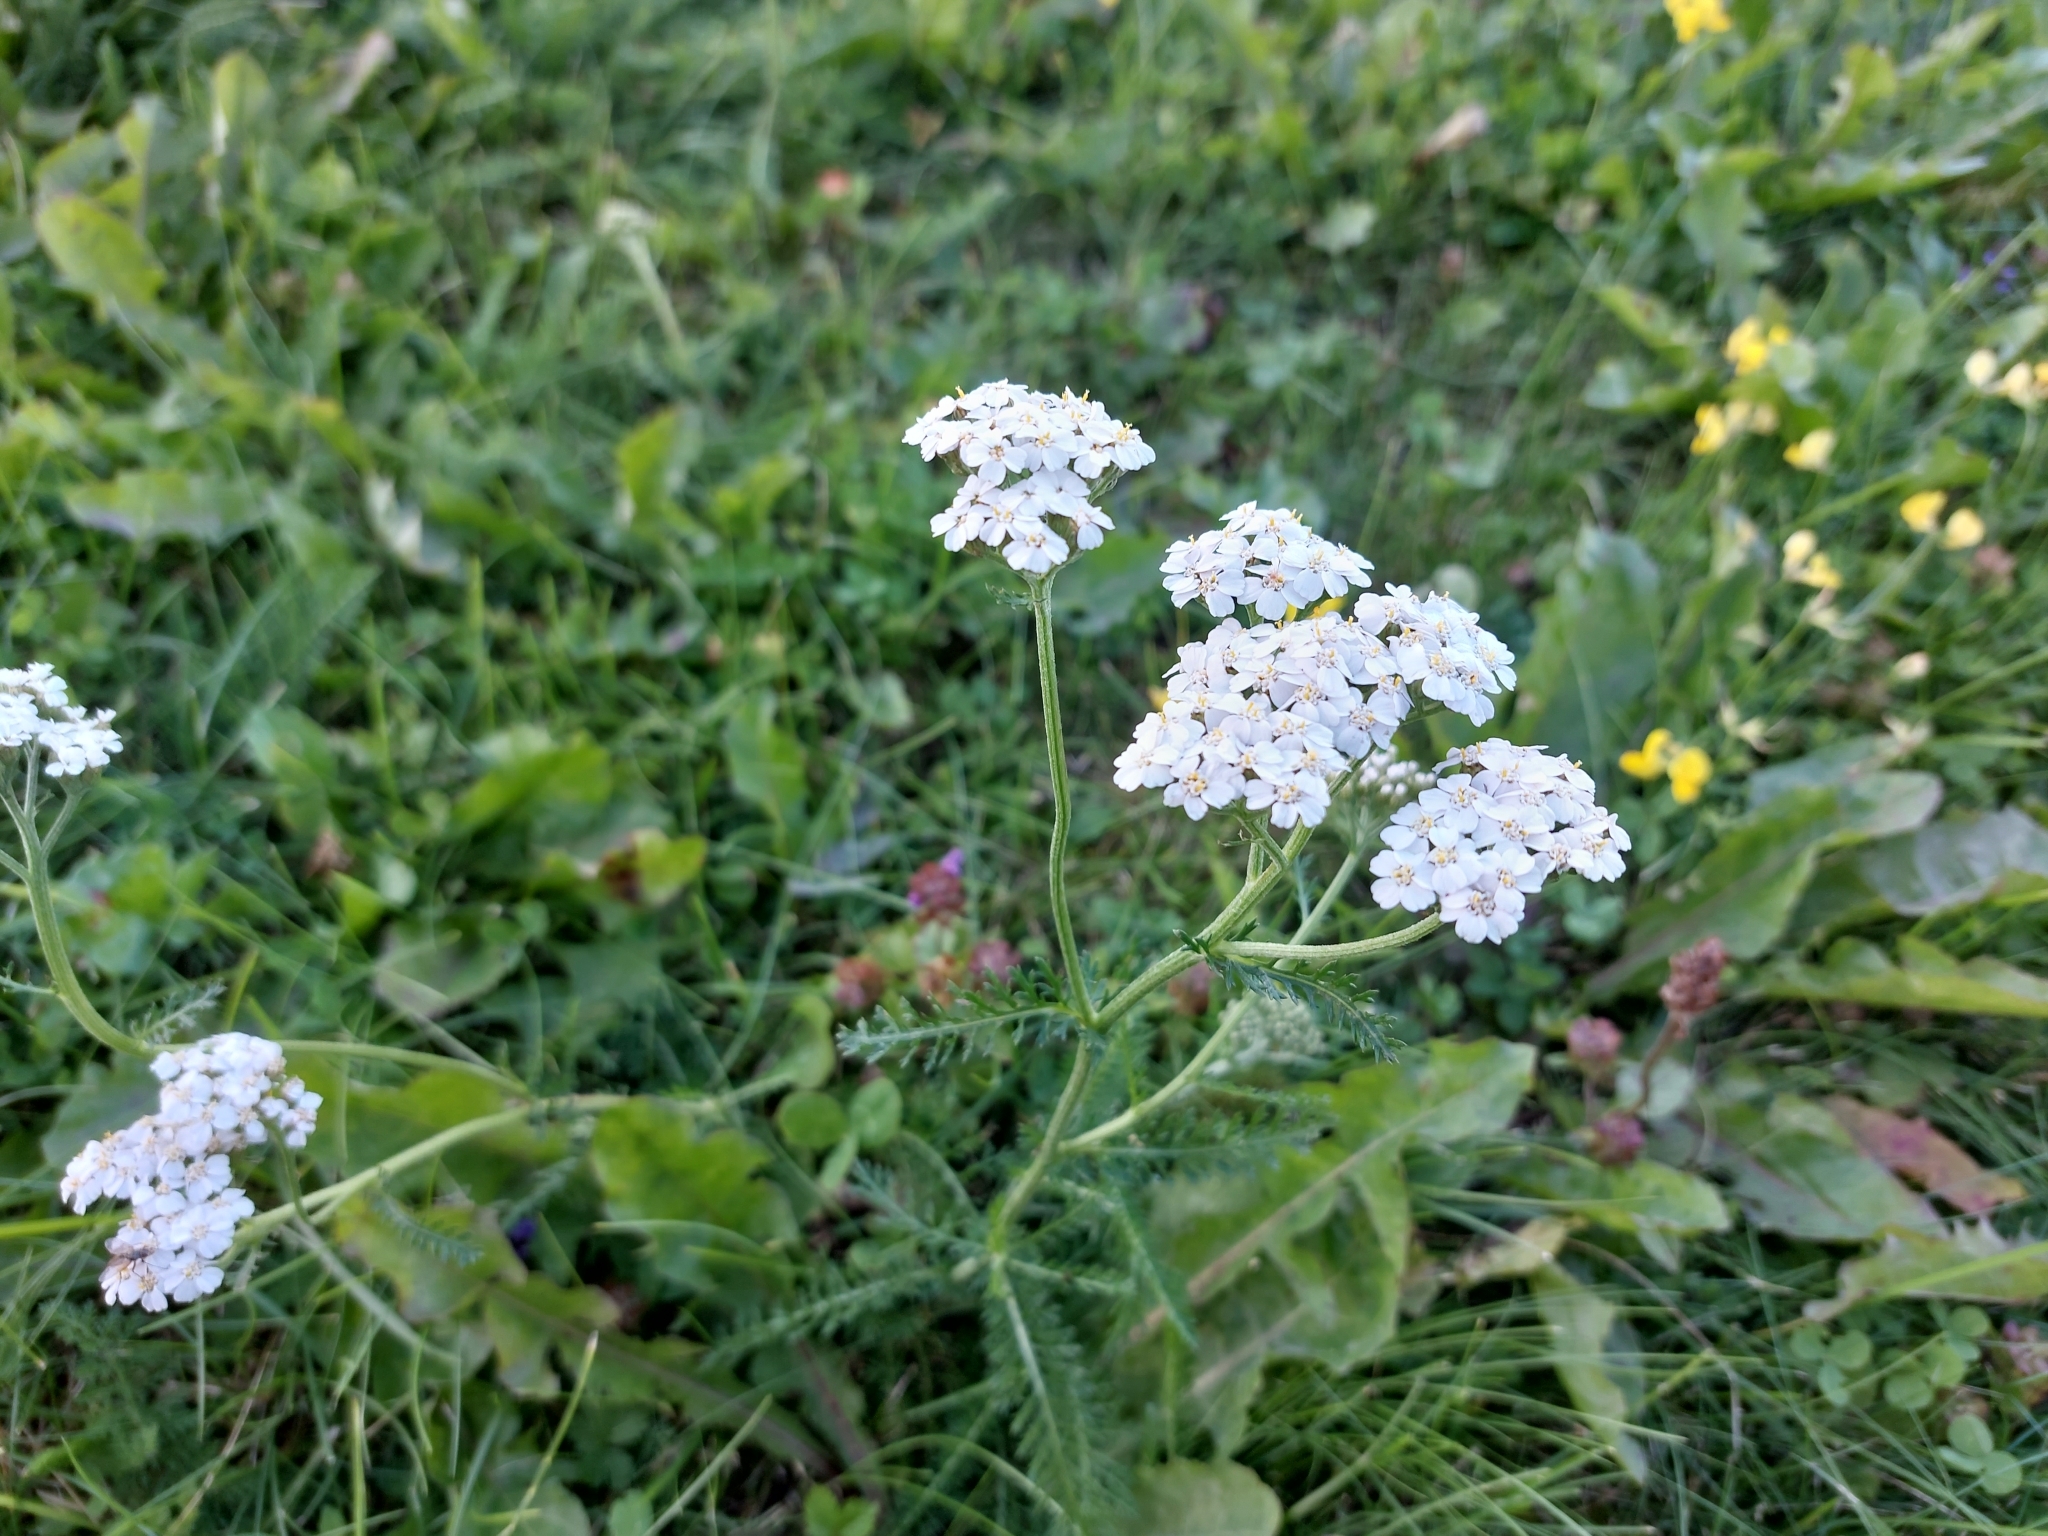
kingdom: Plantae
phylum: Tracheophyta
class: Magnoliopsida
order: Asterales
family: Asteraceae
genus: Achillea
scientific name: Achillea millefolium
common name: Yarrow
